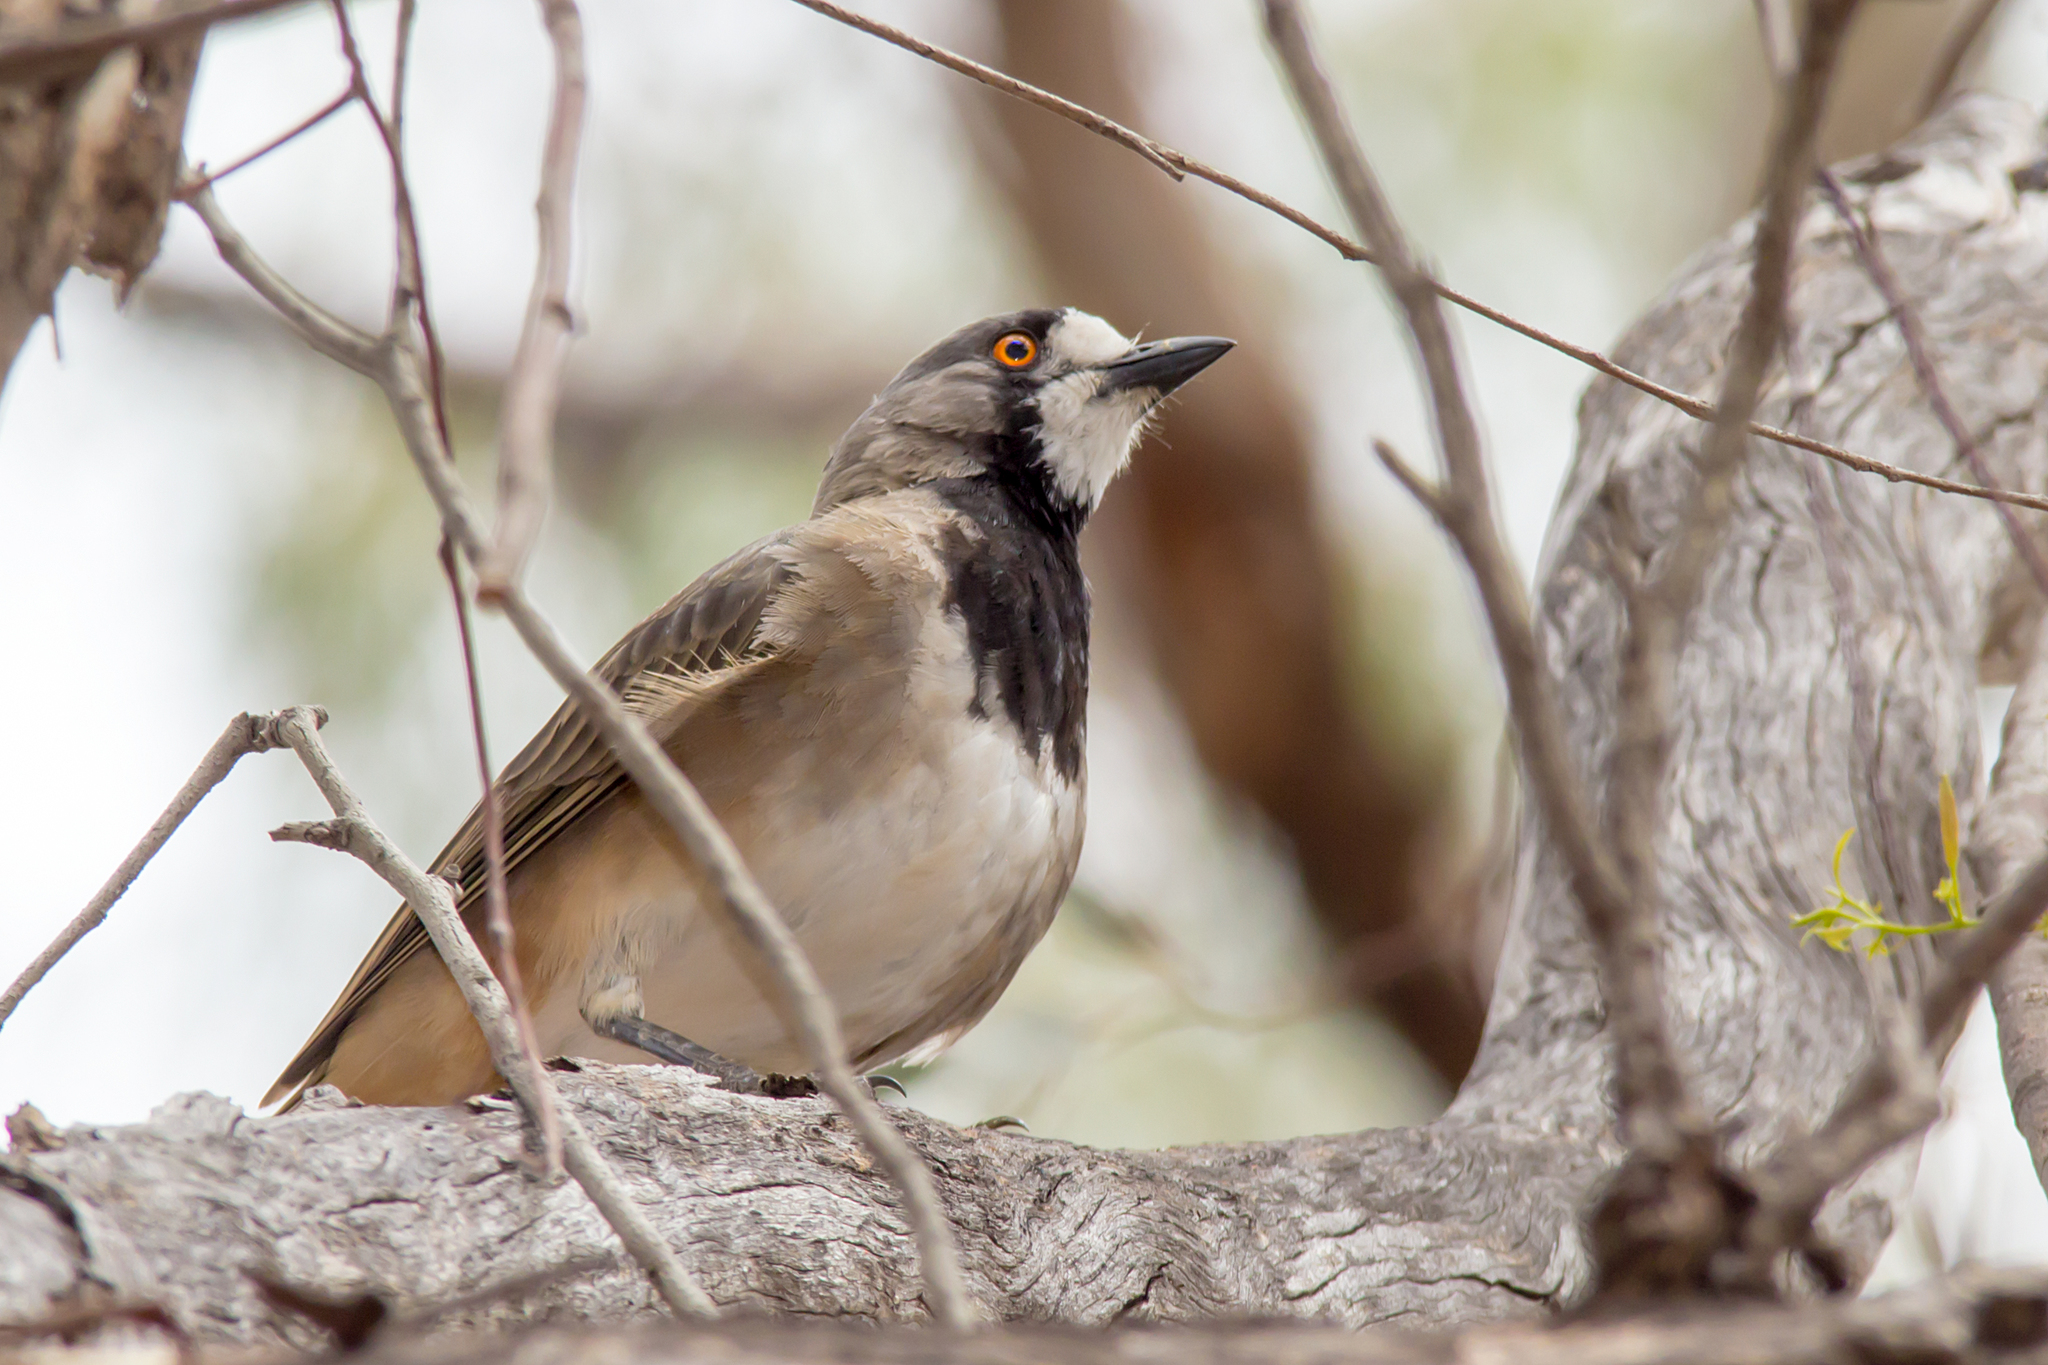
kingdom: Animalia
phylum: Chordata
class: Aves
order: Passeriformes
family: Oreoicidae
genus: Oreoica
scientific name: Oreoica gutturalis
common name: Crested bellbird
